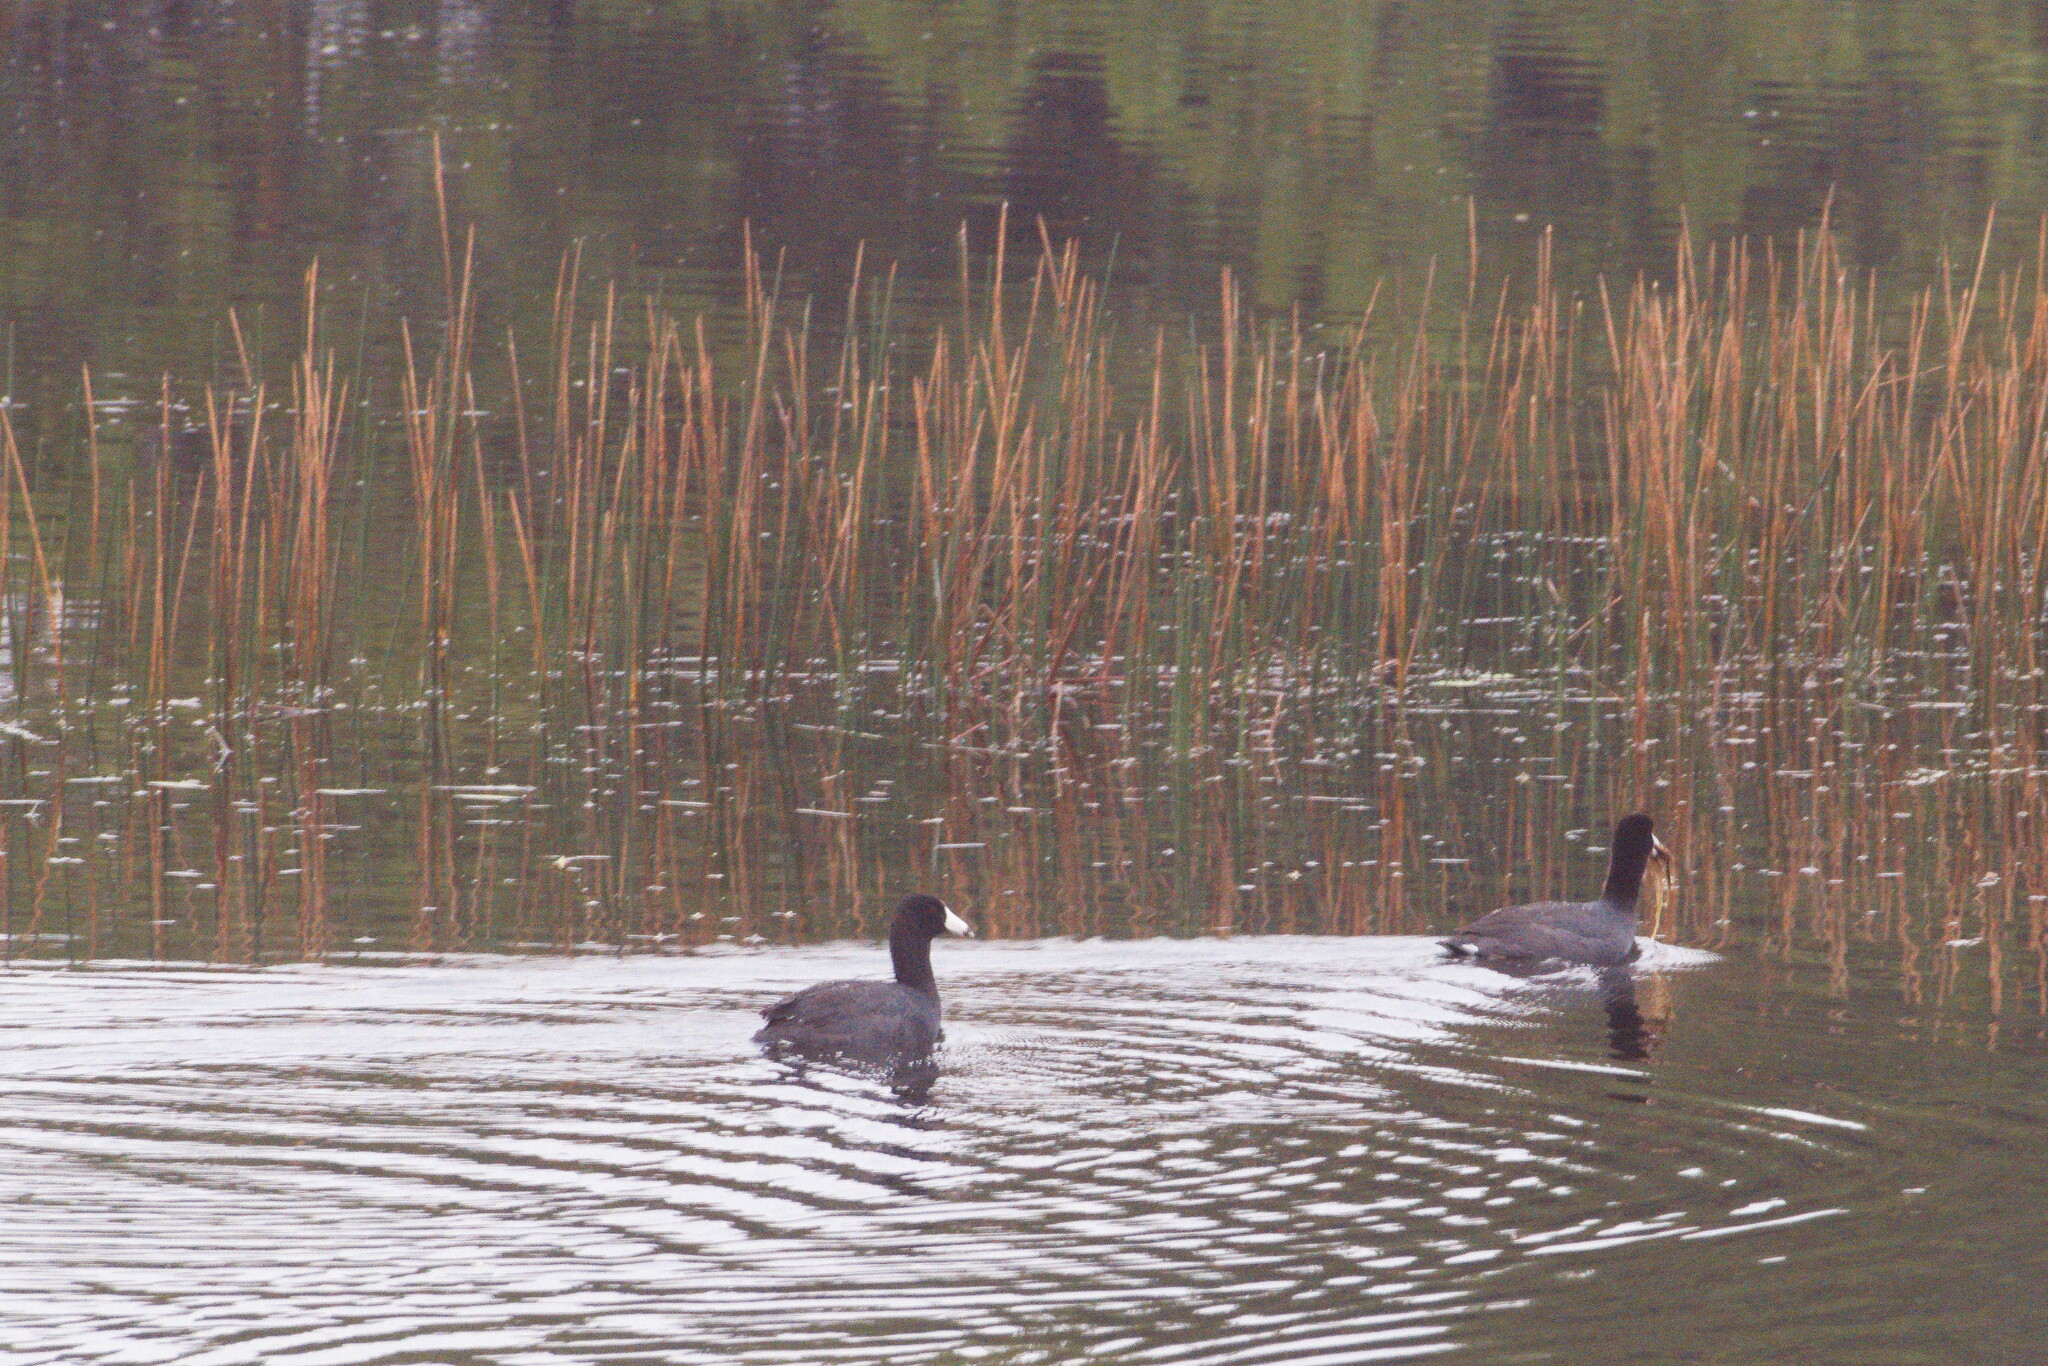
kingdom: Animalia
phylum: Chordata
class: Aves
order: Gruiformes
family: Rallidae
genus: Fulica
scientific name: Fulica americana
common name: American coot
